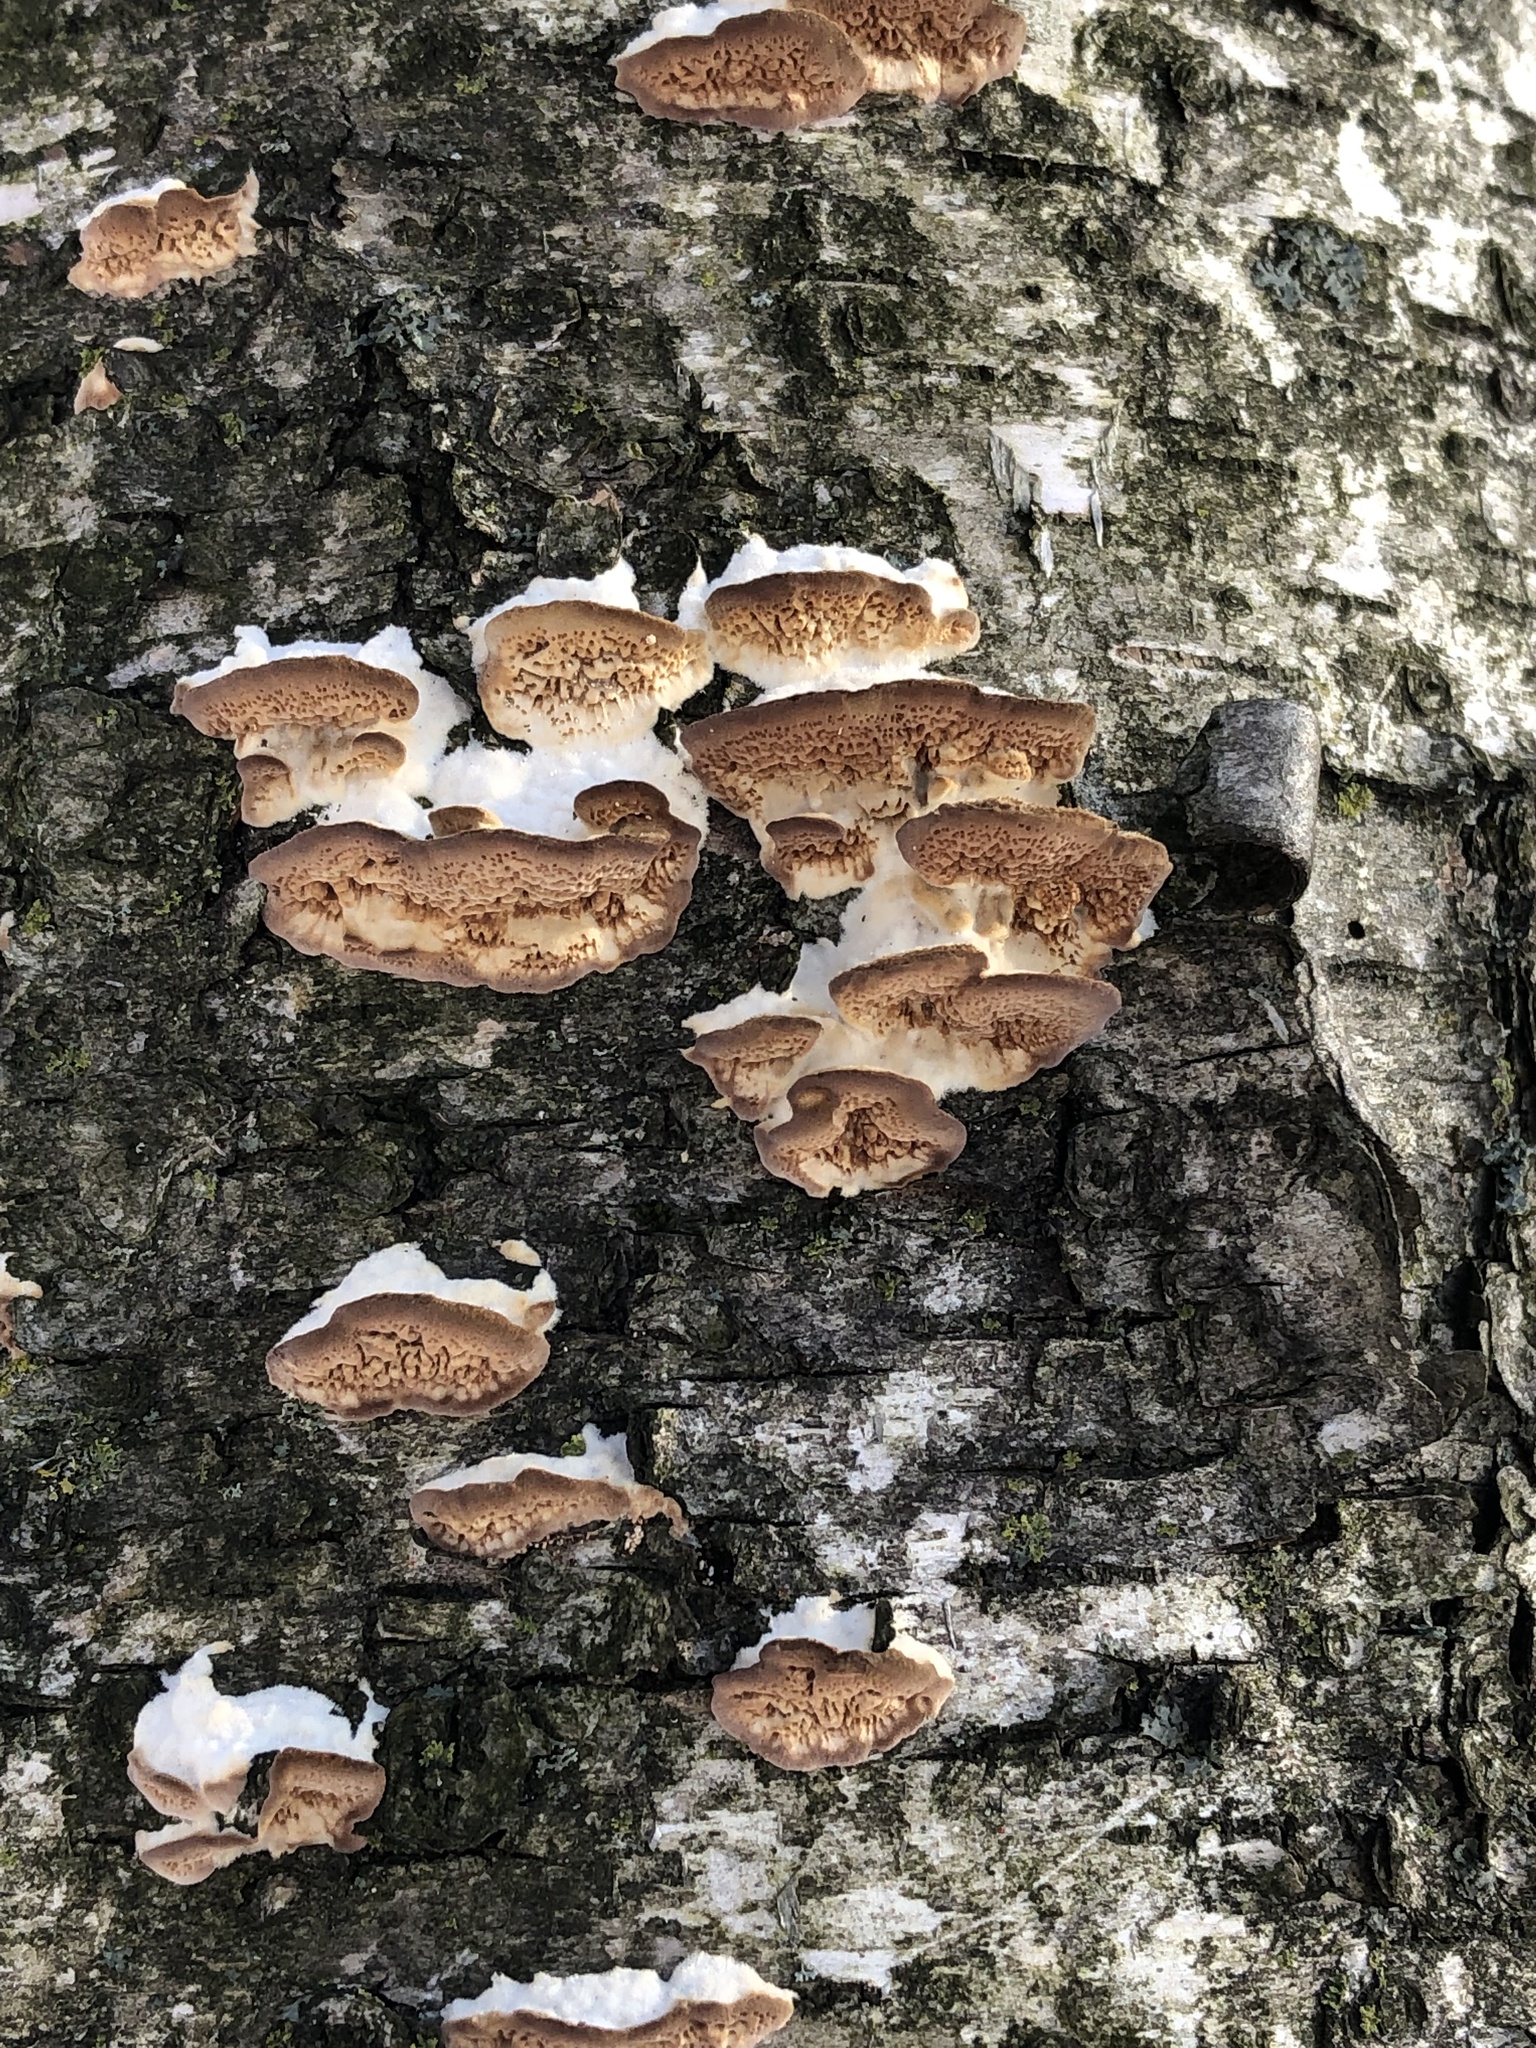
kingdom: Fungi
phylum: Basidiomycota
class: Agaricomycetes
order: Hymenochaetales
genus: Trichaptum
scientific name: Trichaptum biforme
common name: Violet-toothed polypore
